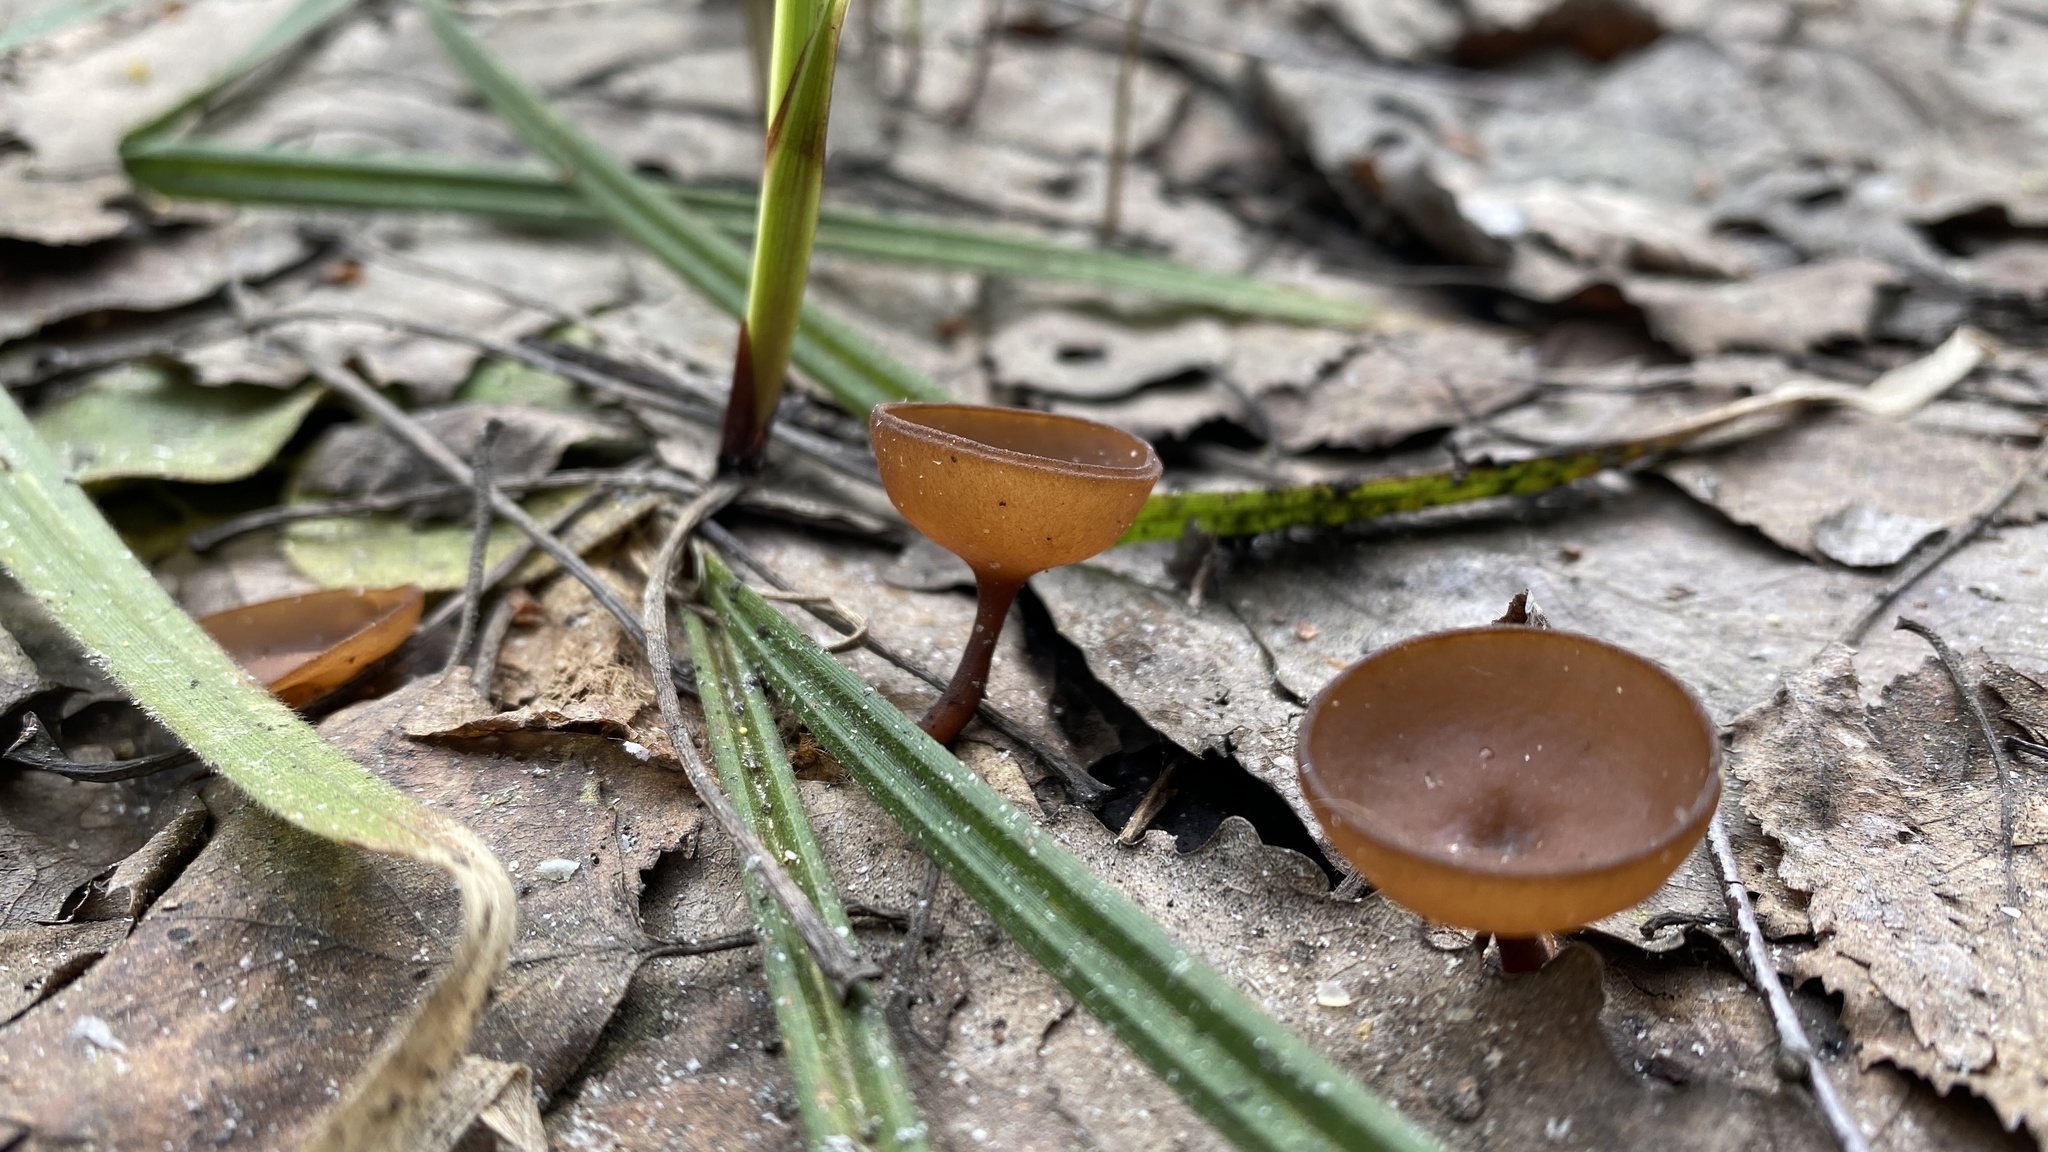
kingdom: Fungi
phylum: Ascomycota
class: Leotiomycetes
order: Helotiales
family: Sclerotiniaceae
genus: Dumontinia
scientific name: Dumontinia tuberosa
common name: Anemone cup
